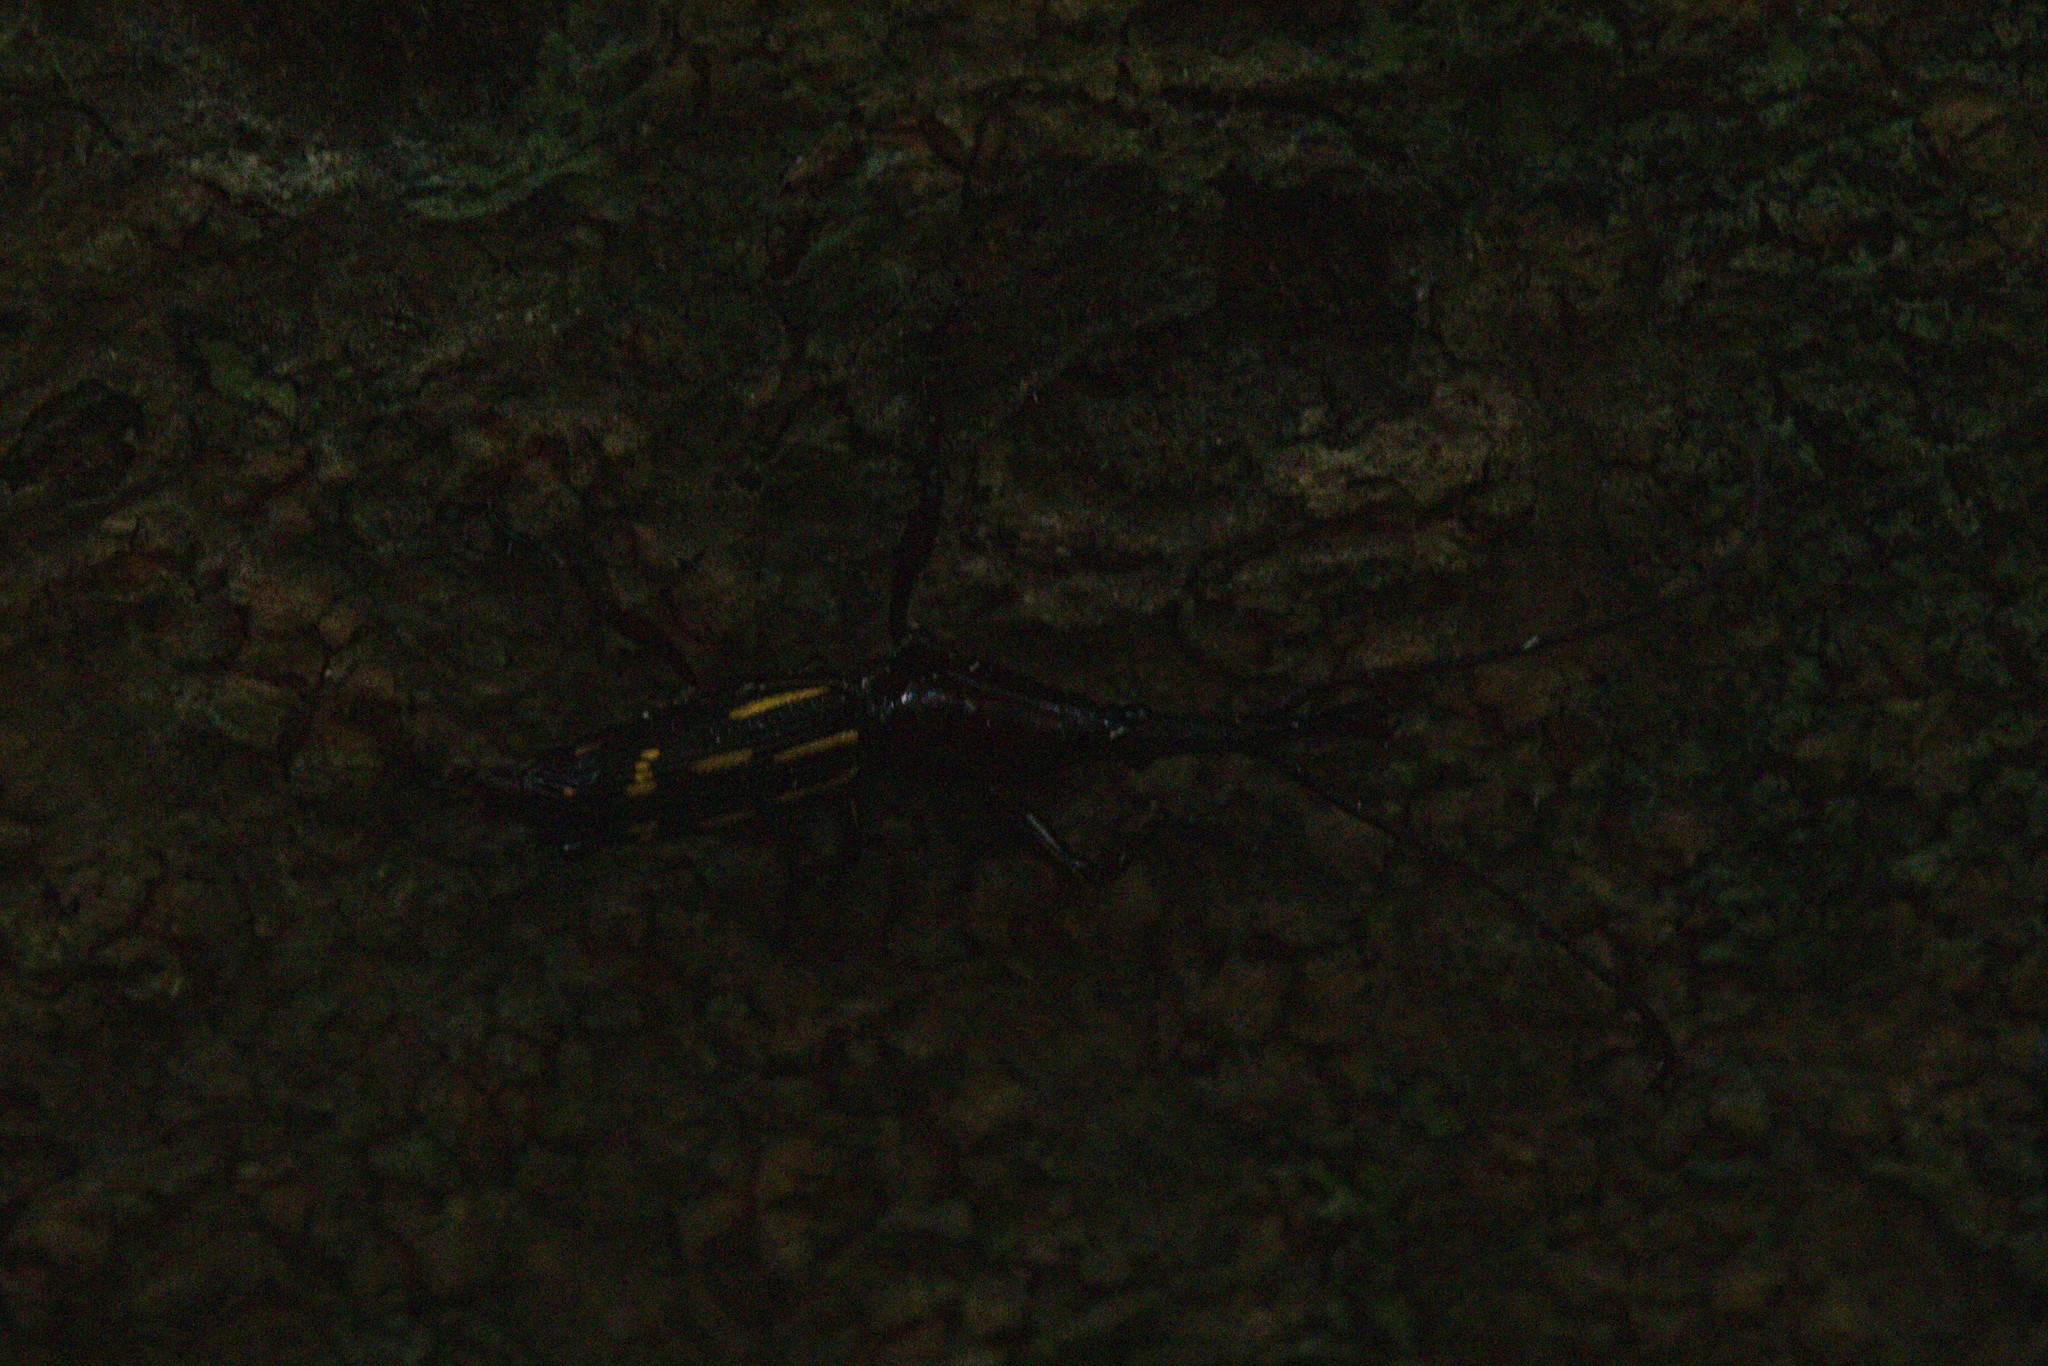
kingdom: Animalia
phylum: Arthropoda
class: Insecta
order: Coleoptera
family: Brentidae
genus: Ectocemus
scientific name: Ectocemus decemmaculatus
